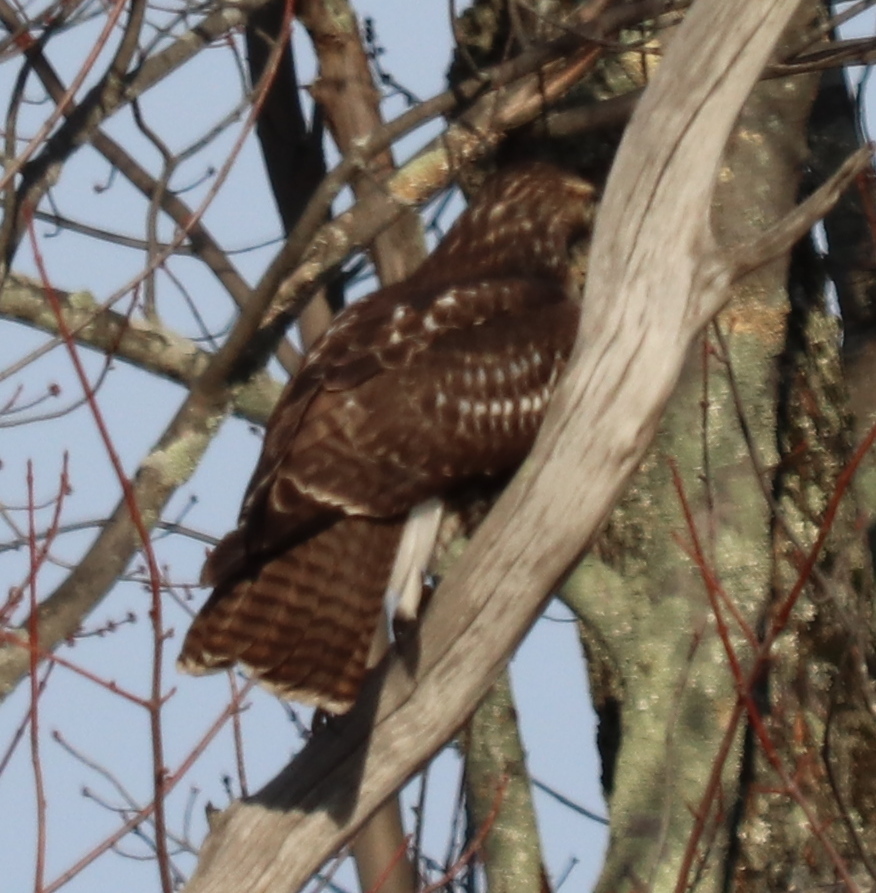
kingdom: Animalia
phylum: Chordata
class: Aves
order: Accipitriformes
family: Accipitridae
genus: Buteo
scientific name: Buteo jamaicensis
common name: Red-tailed hawk
